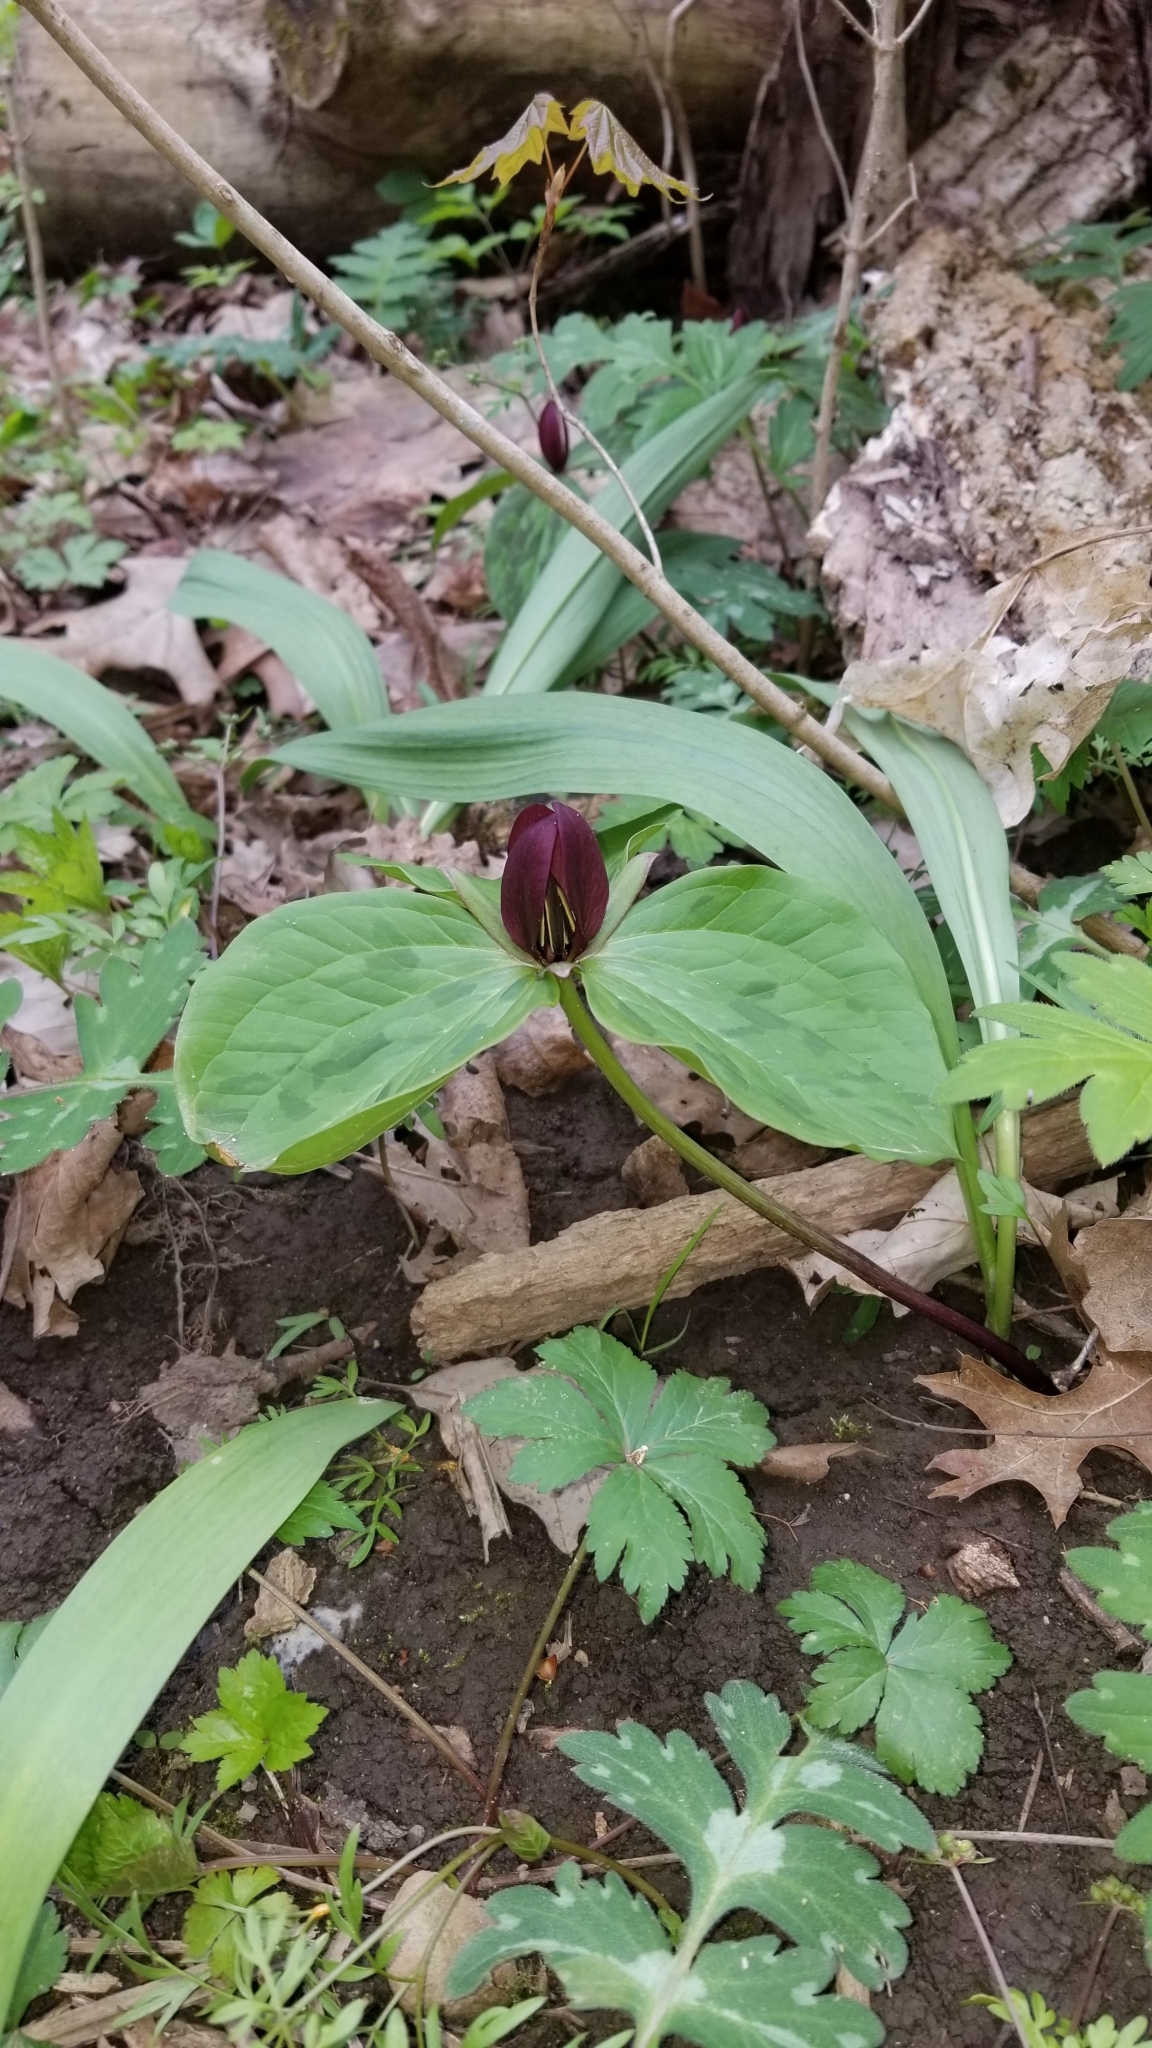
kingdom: Plantae
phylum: Tracheophyta
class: Liliopsida
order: Liliales
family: Melanthiaceae
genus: Trillium
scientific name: Trillium sessile
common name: Sessile trillium
